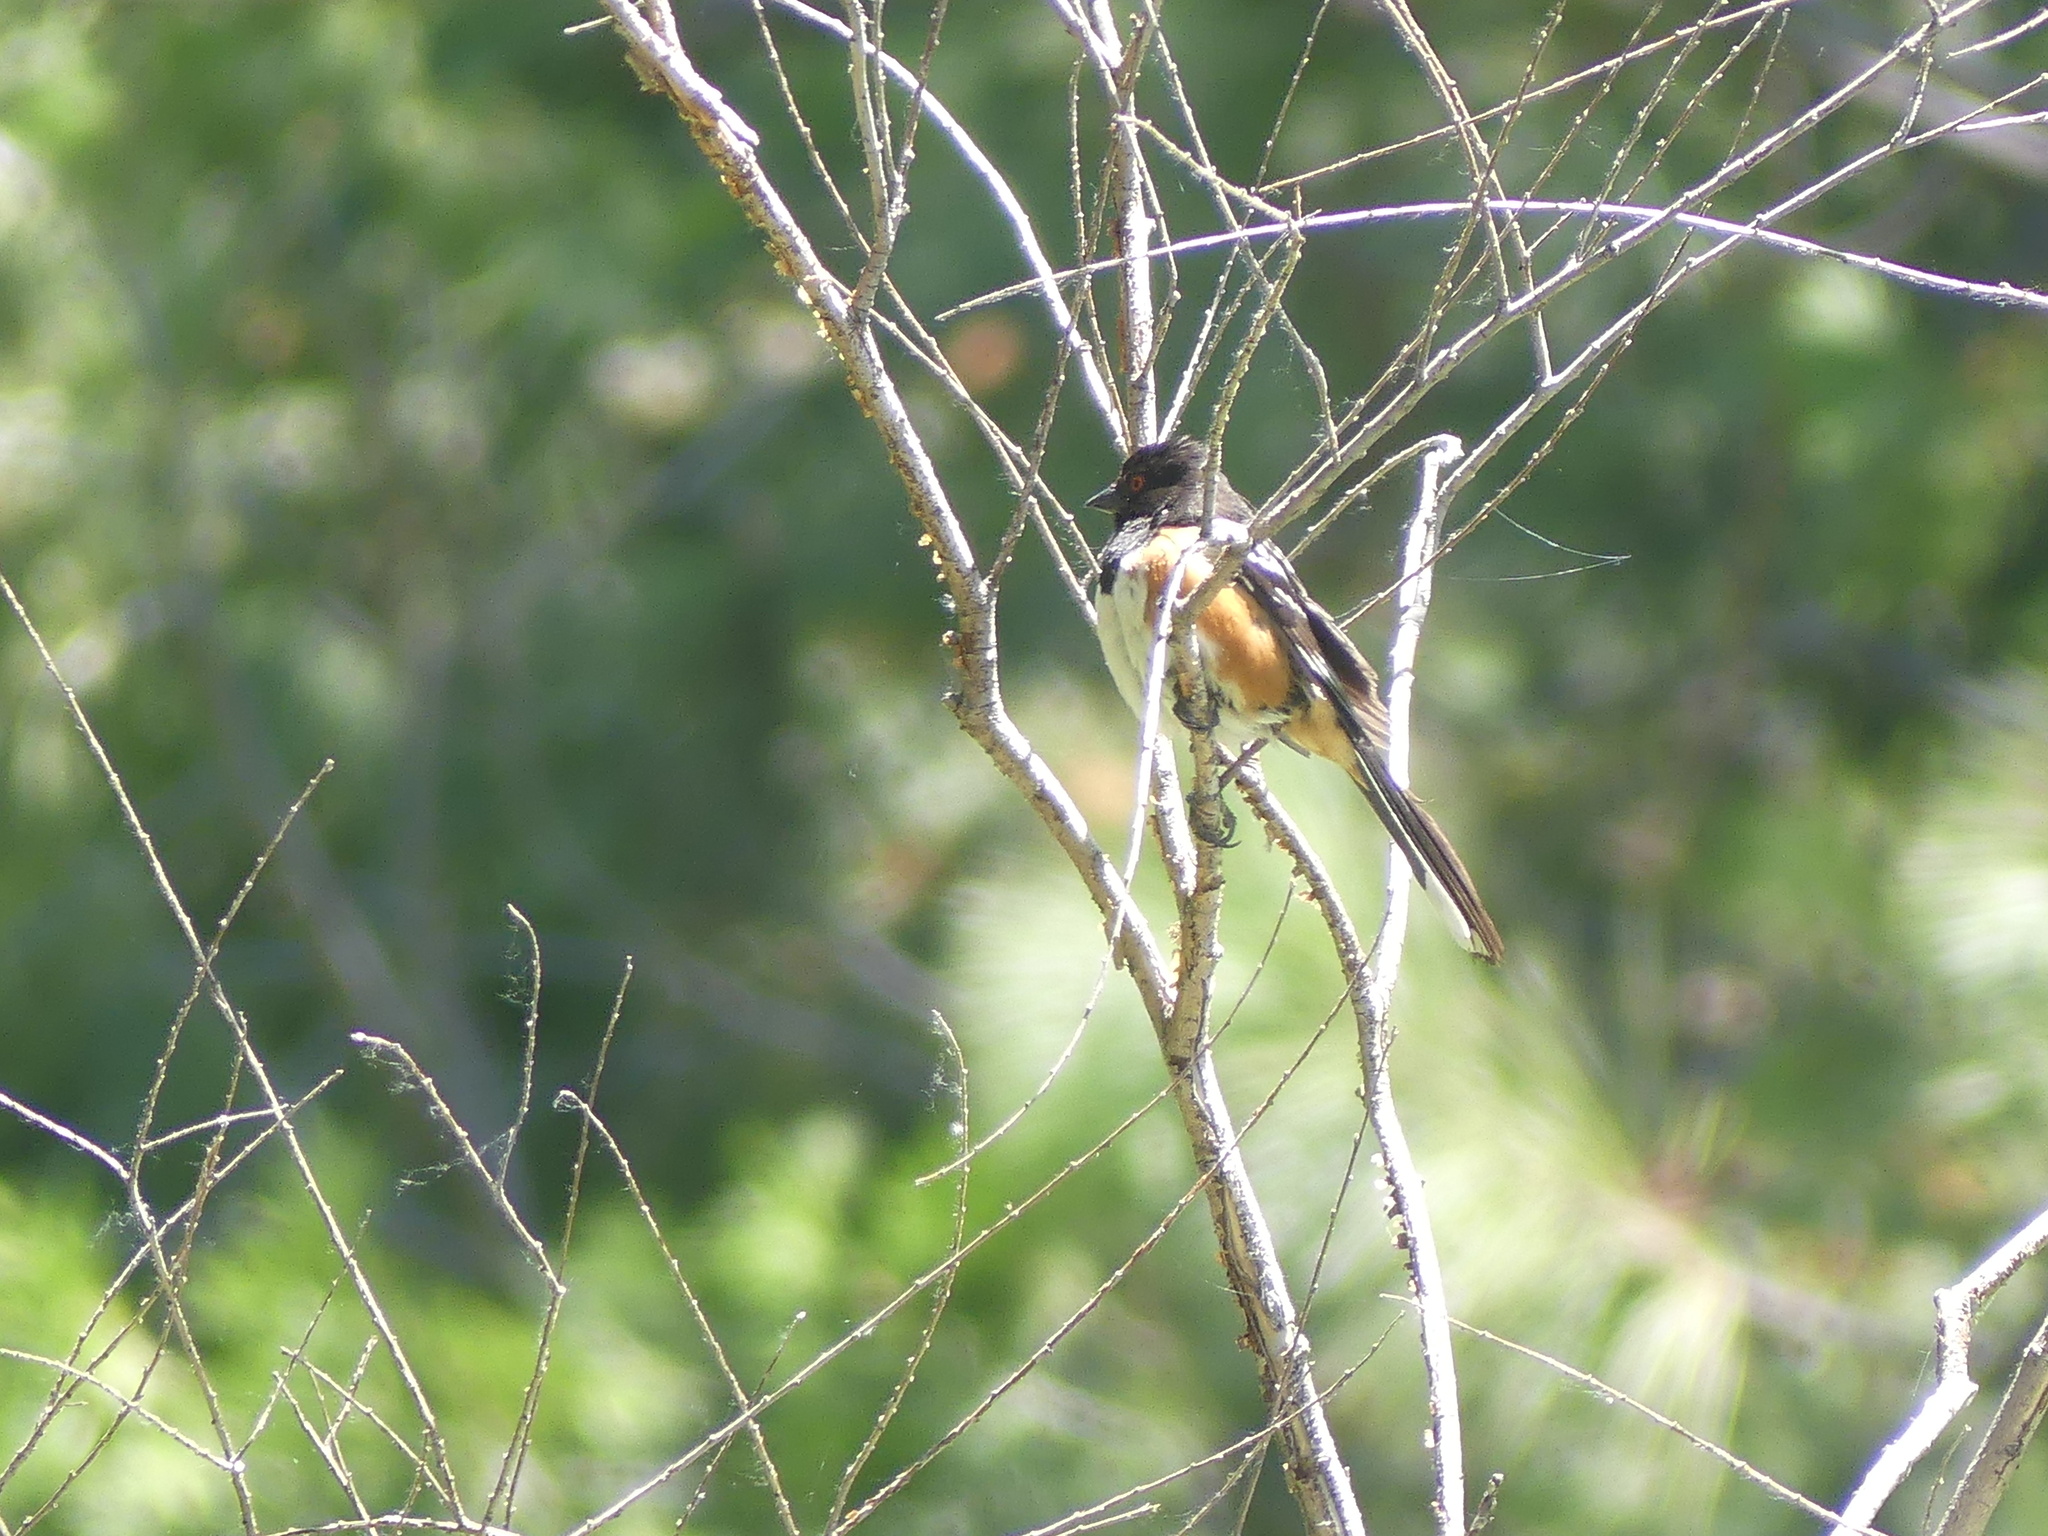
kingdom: Animalia
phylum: Chordata
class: Aves
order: Passeriformes
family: Passerellidae
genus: Pipilo
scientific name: Pipilo maculatus
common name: Spotted towhee
